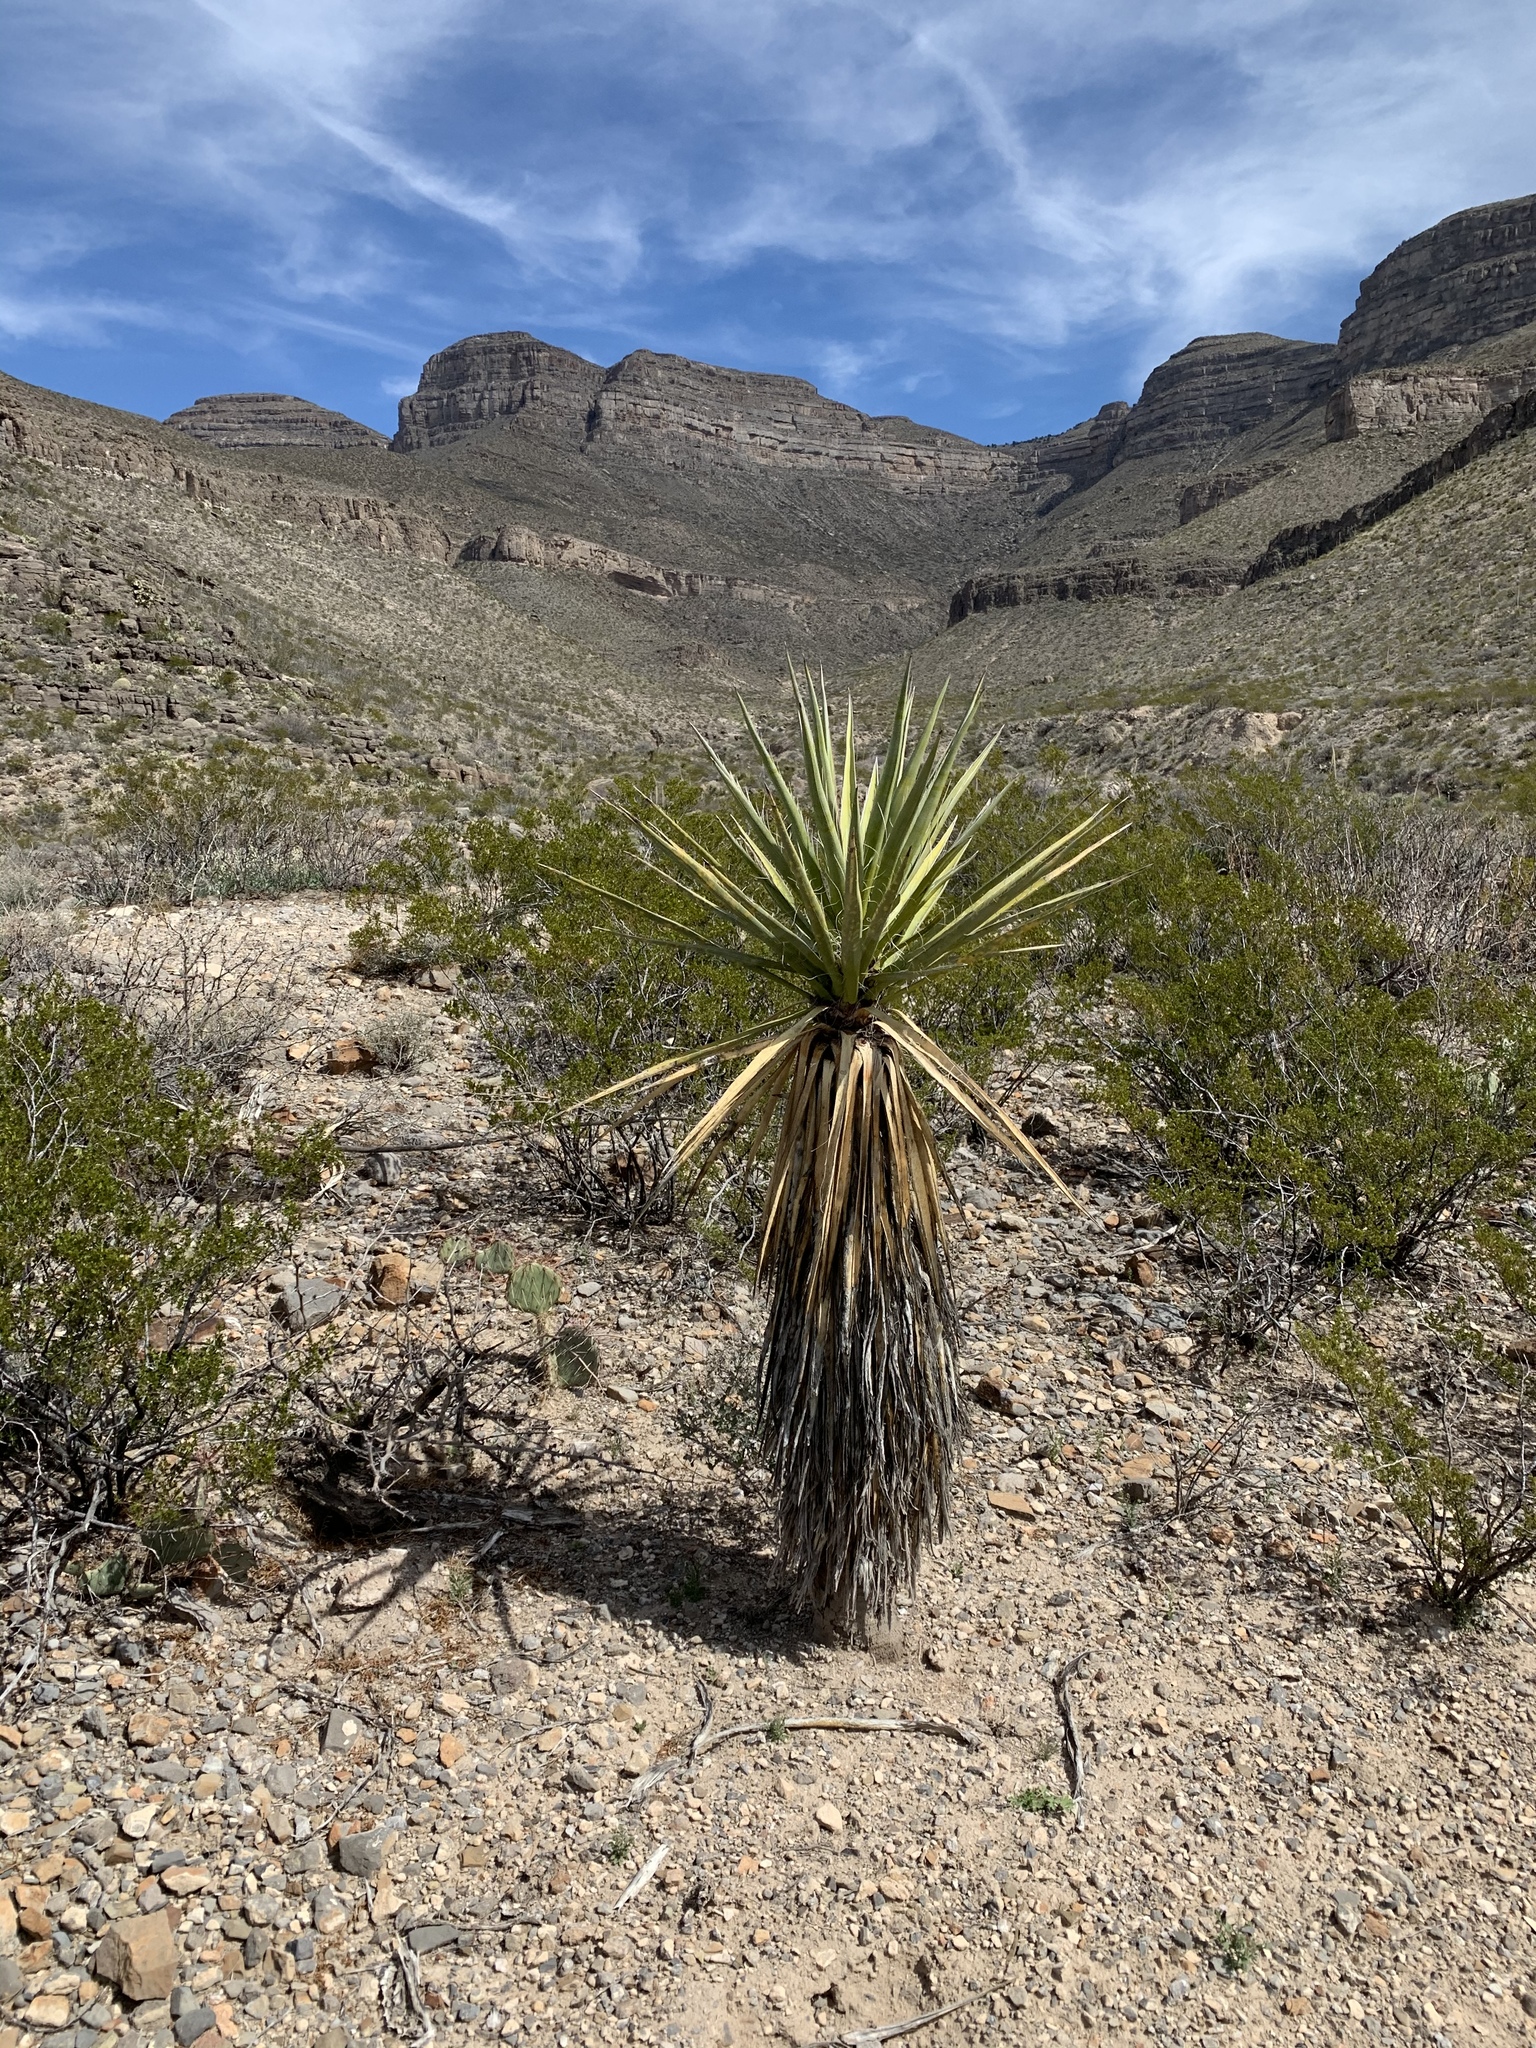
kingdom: Plantae
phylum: Tracheophyta
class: Liliopsida
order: Asparagales
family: Asparagaceae
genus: Yucca
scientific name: Yucca treculiana
